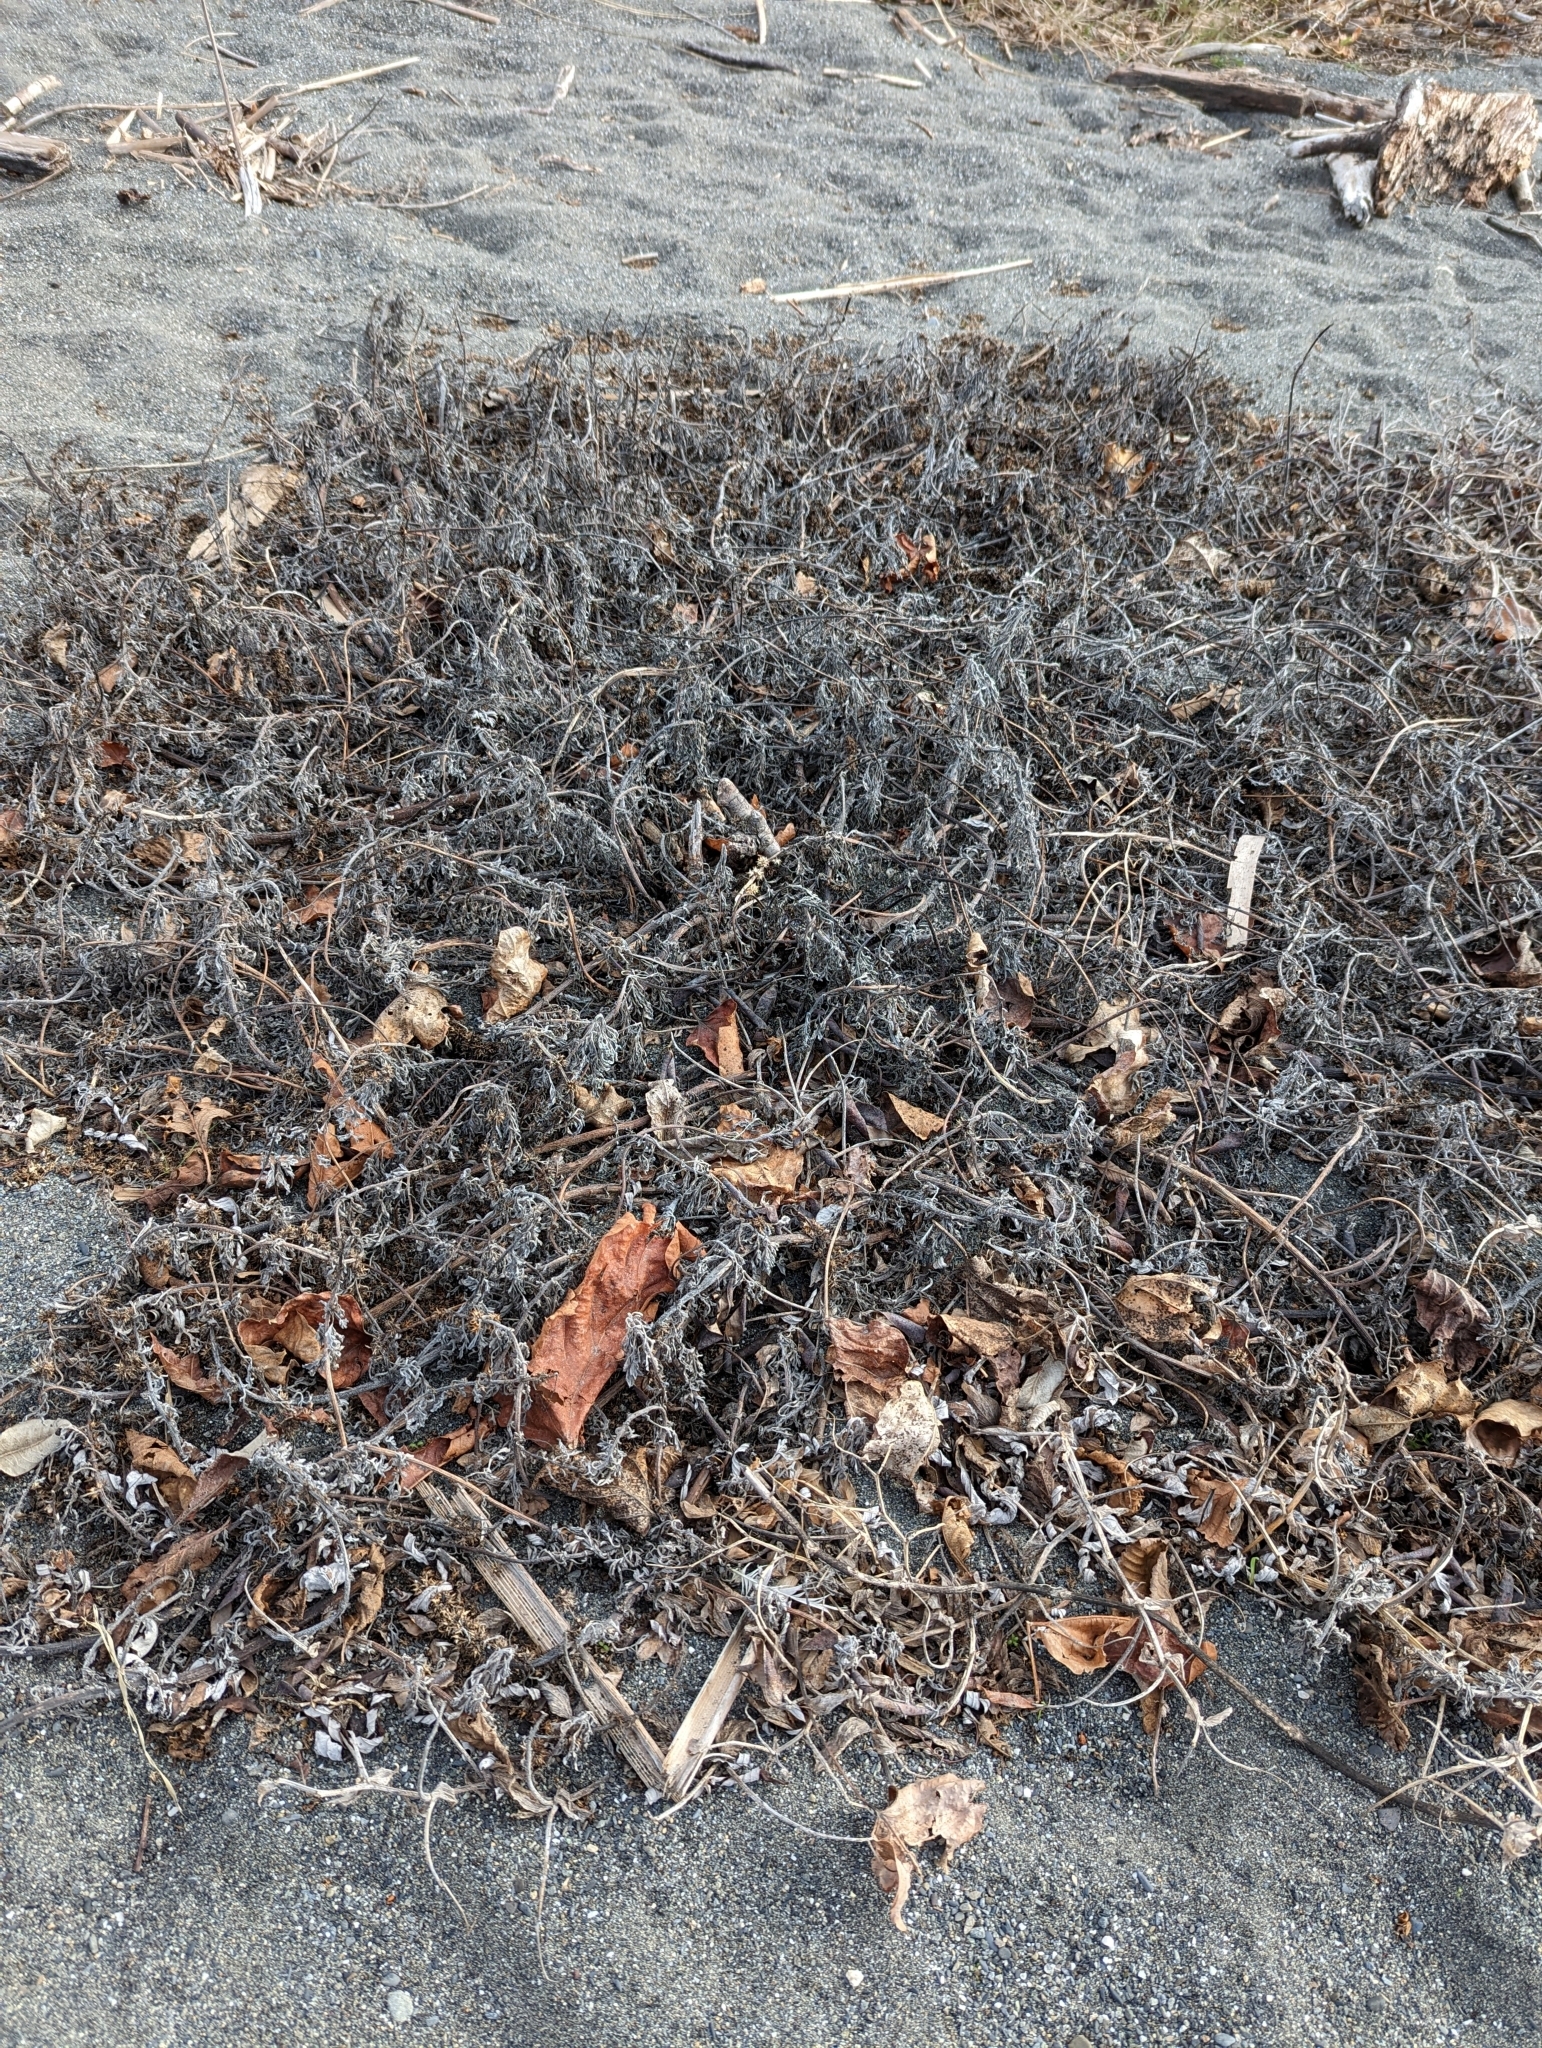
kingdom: Plantae
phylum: Tracheophyta
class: Magnoliopsida
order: Asterales
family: Asteraceae
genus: Ambrosia
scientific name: Ambrosia chamissonis
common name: Beachbur
